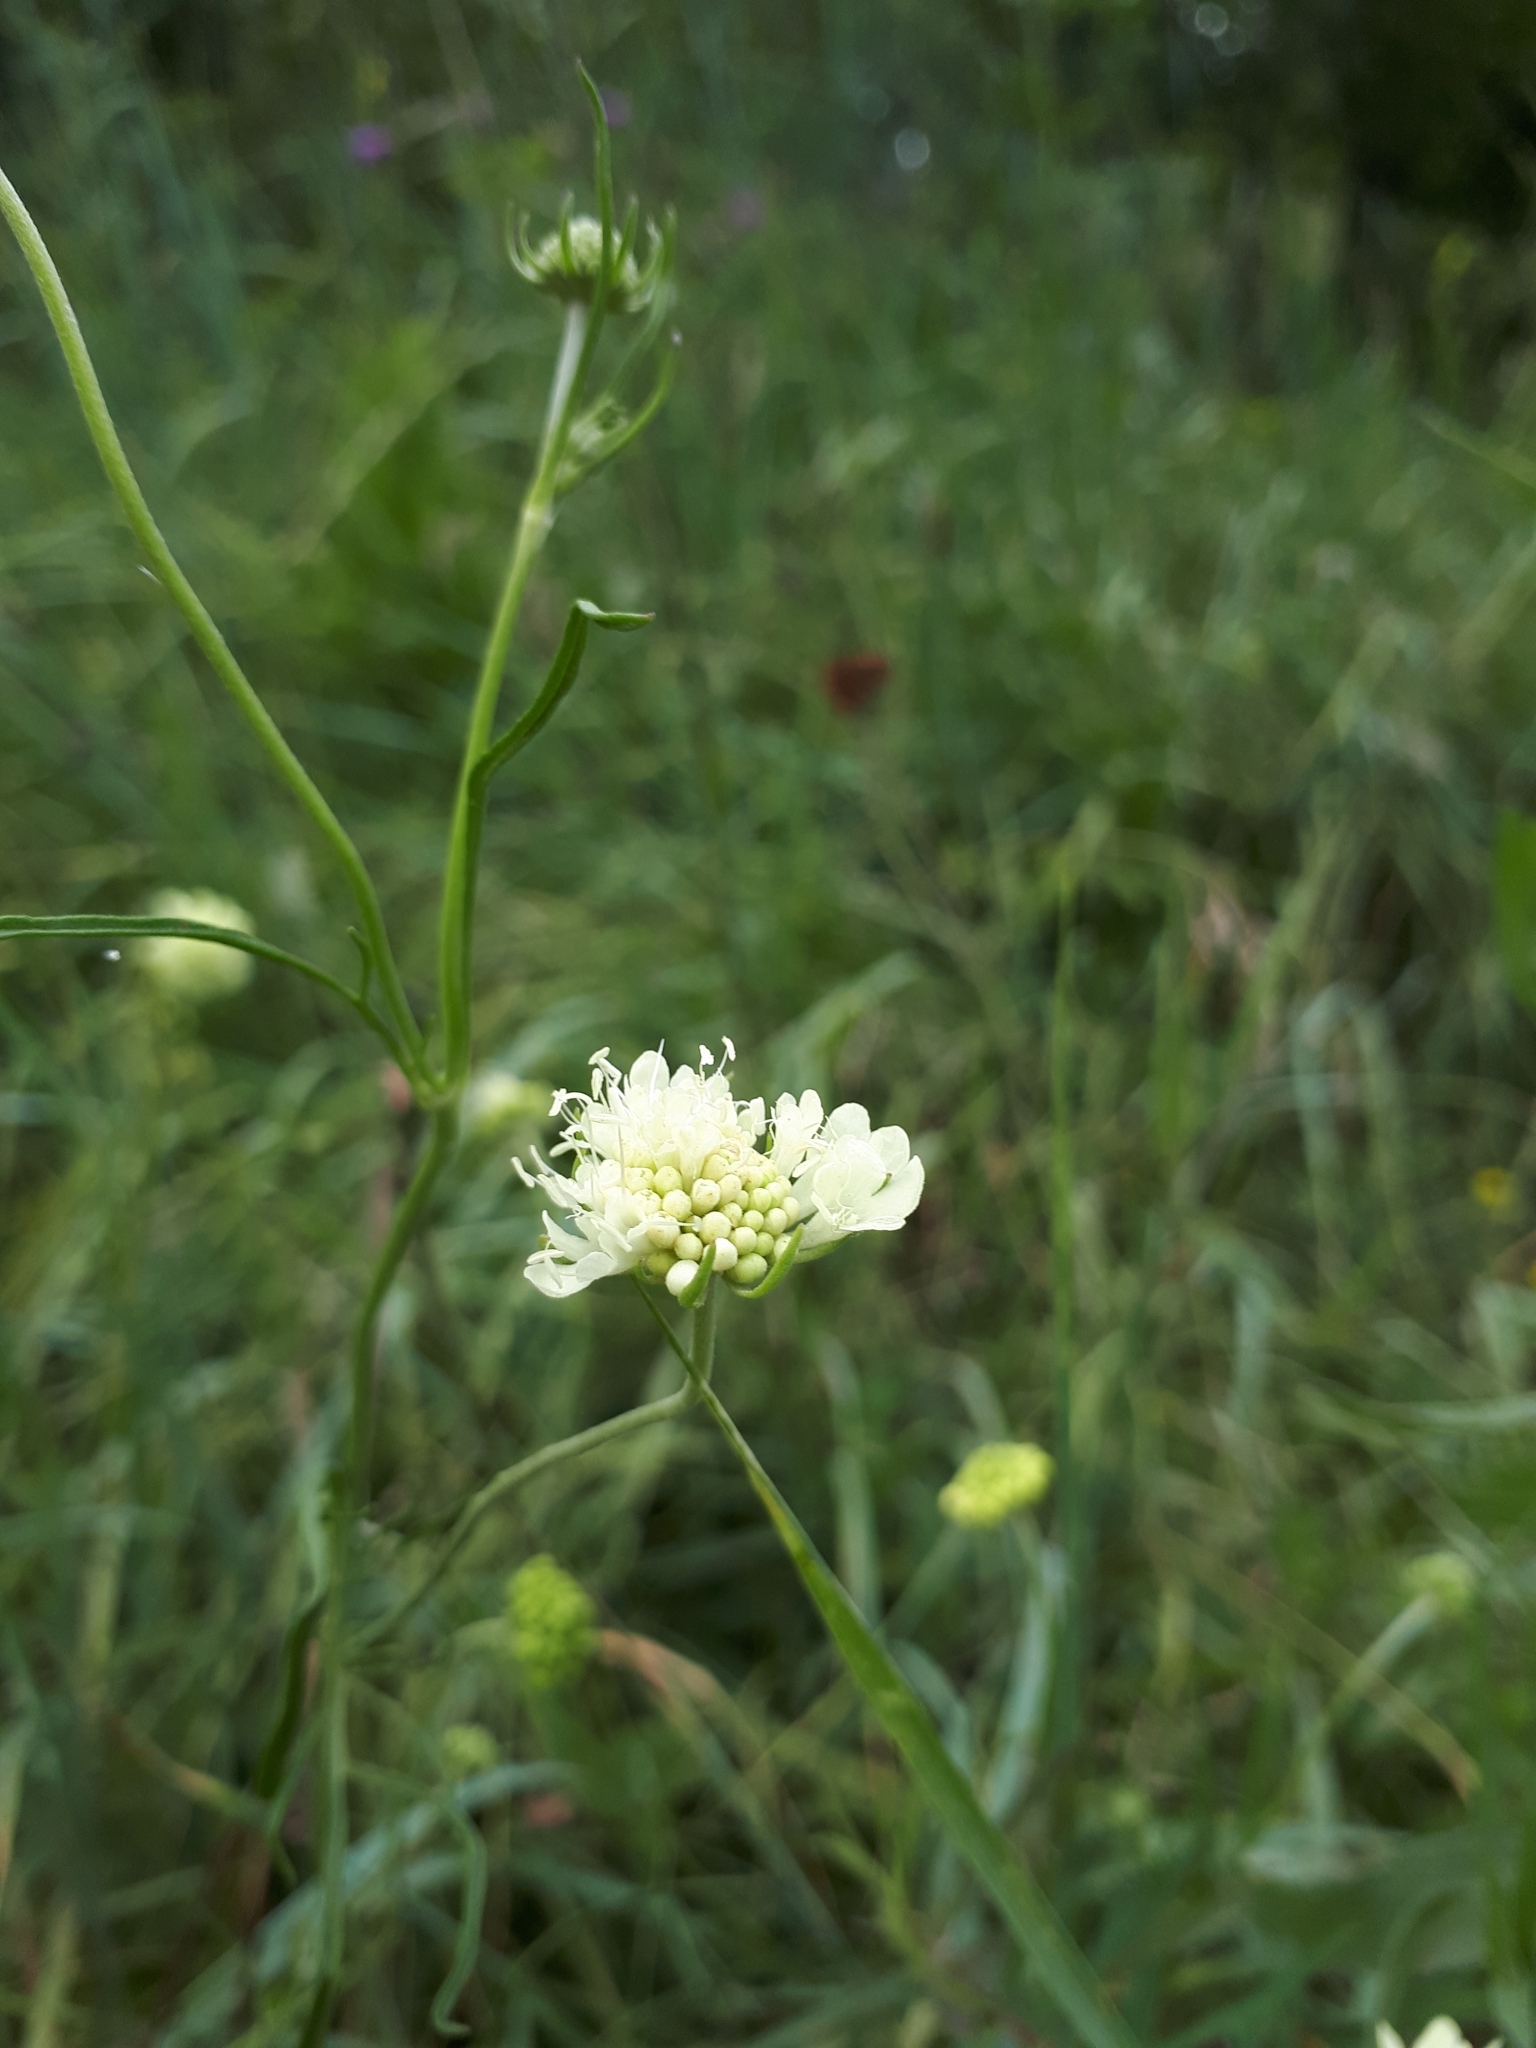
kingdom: Plantae
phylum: Tracheophyta
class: Magnoliopsida
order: Dipsacales
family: Caprifoliaceae
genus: Scabiosa
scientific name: Scabiosa ochroleuca
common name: Cream pincushions
